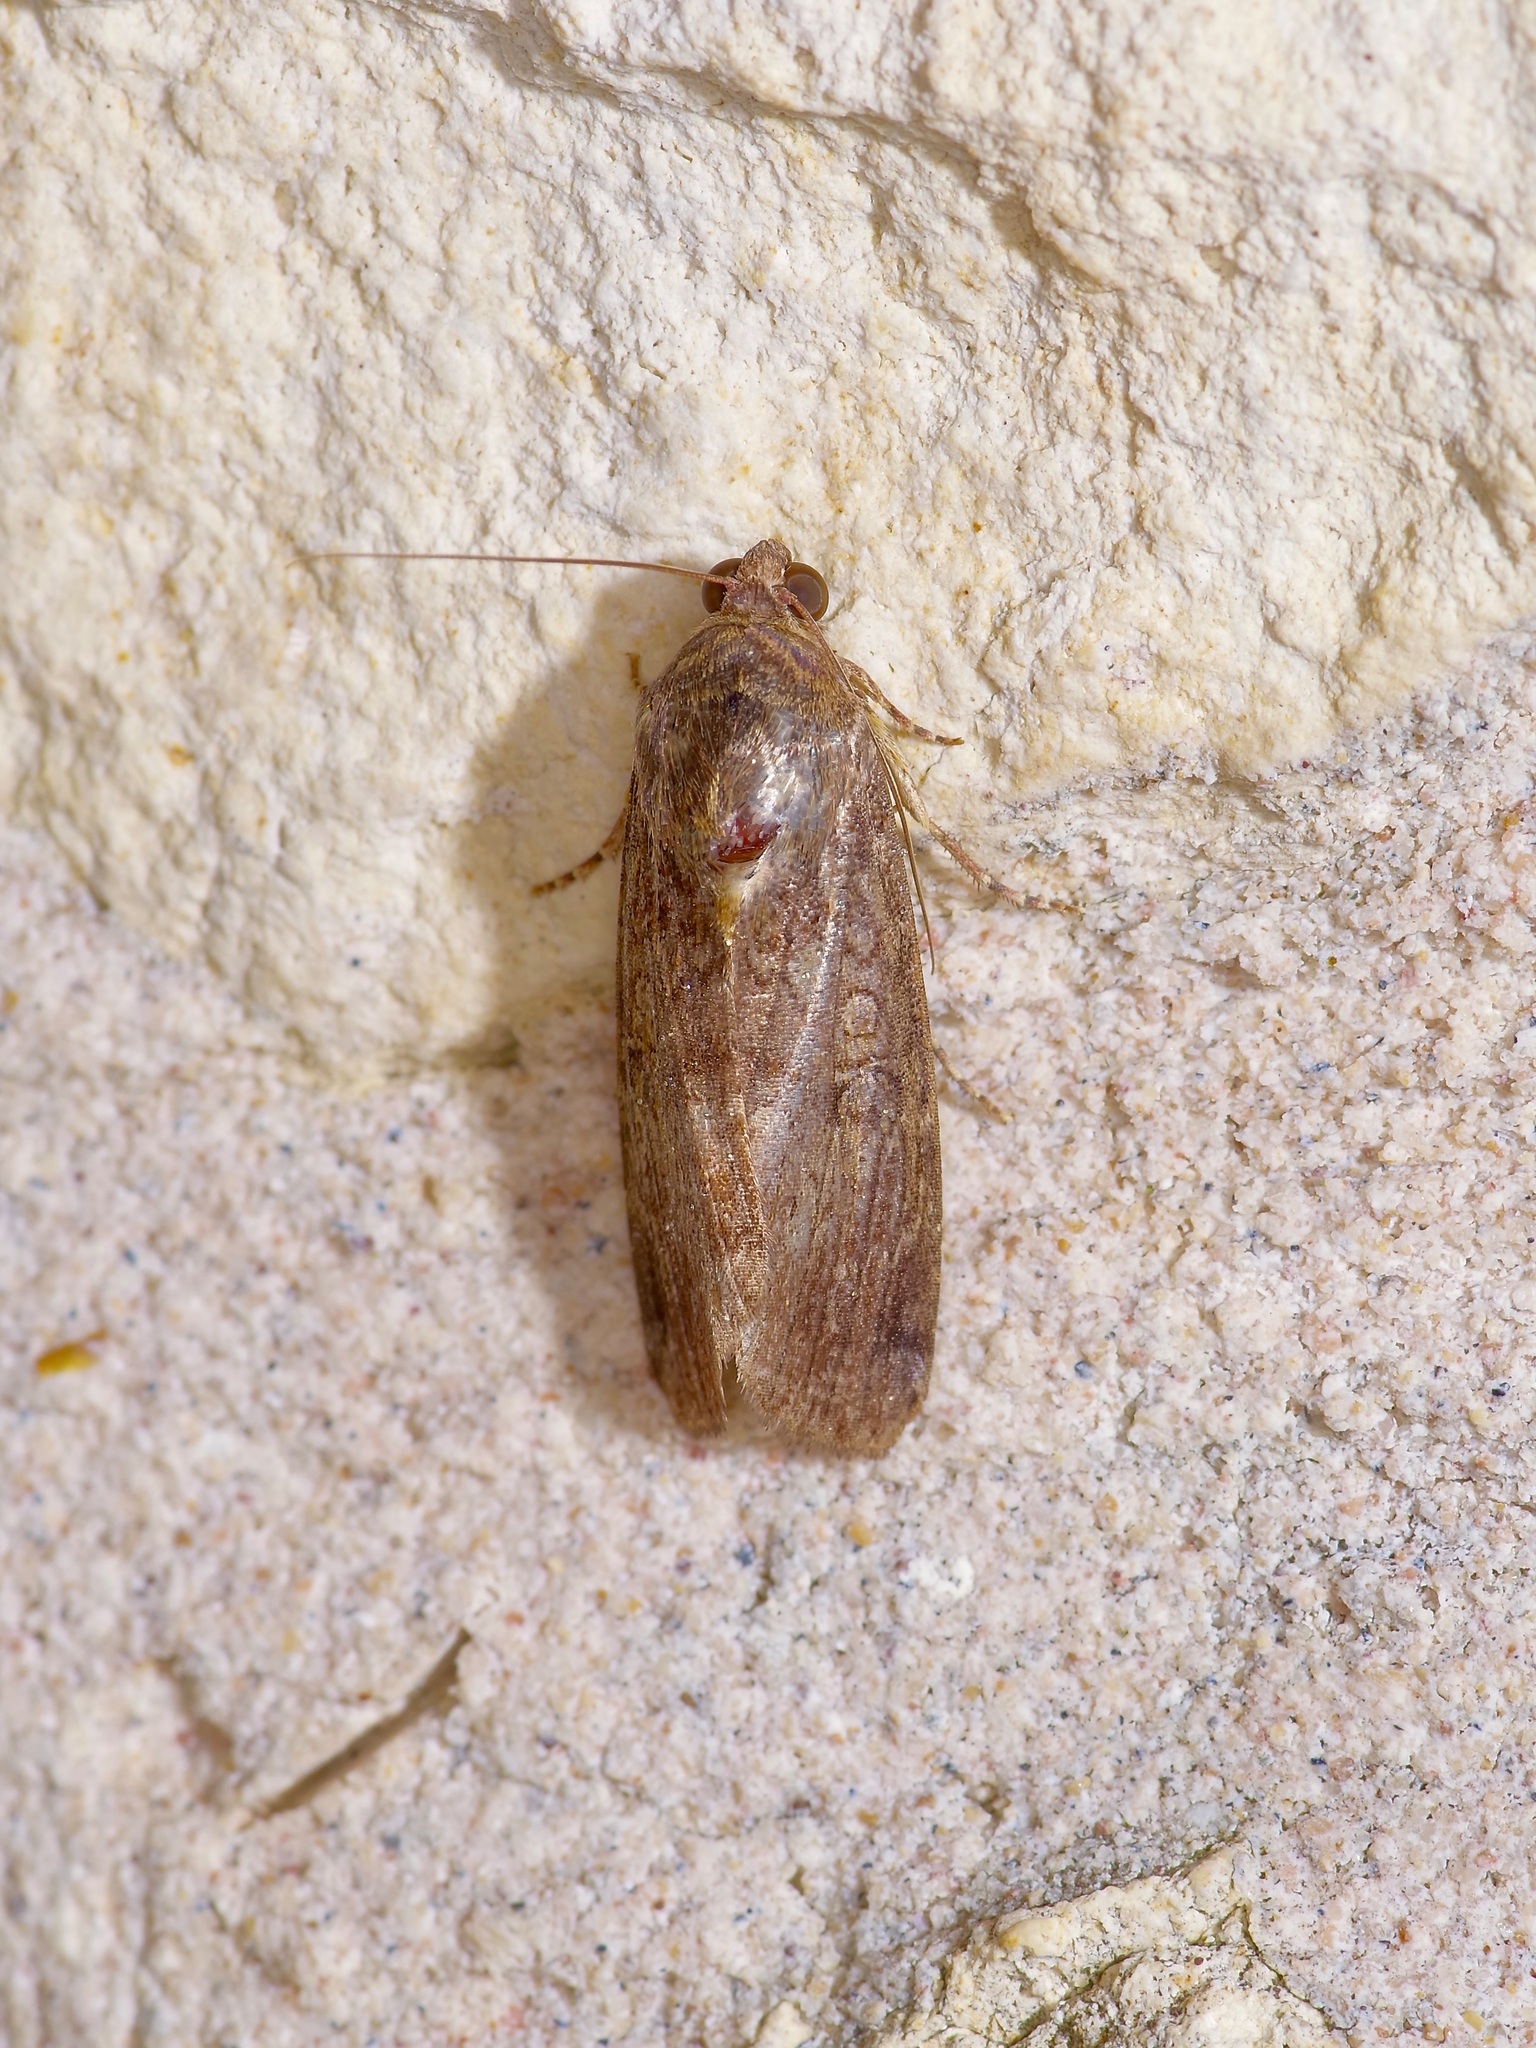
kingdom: Animalia
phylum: Arthropoda
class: Insecta
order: Lepidoptera
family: Noctuidae
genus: Magusa
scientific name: Magusa divaricata
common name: Orb narrow-winged moth
